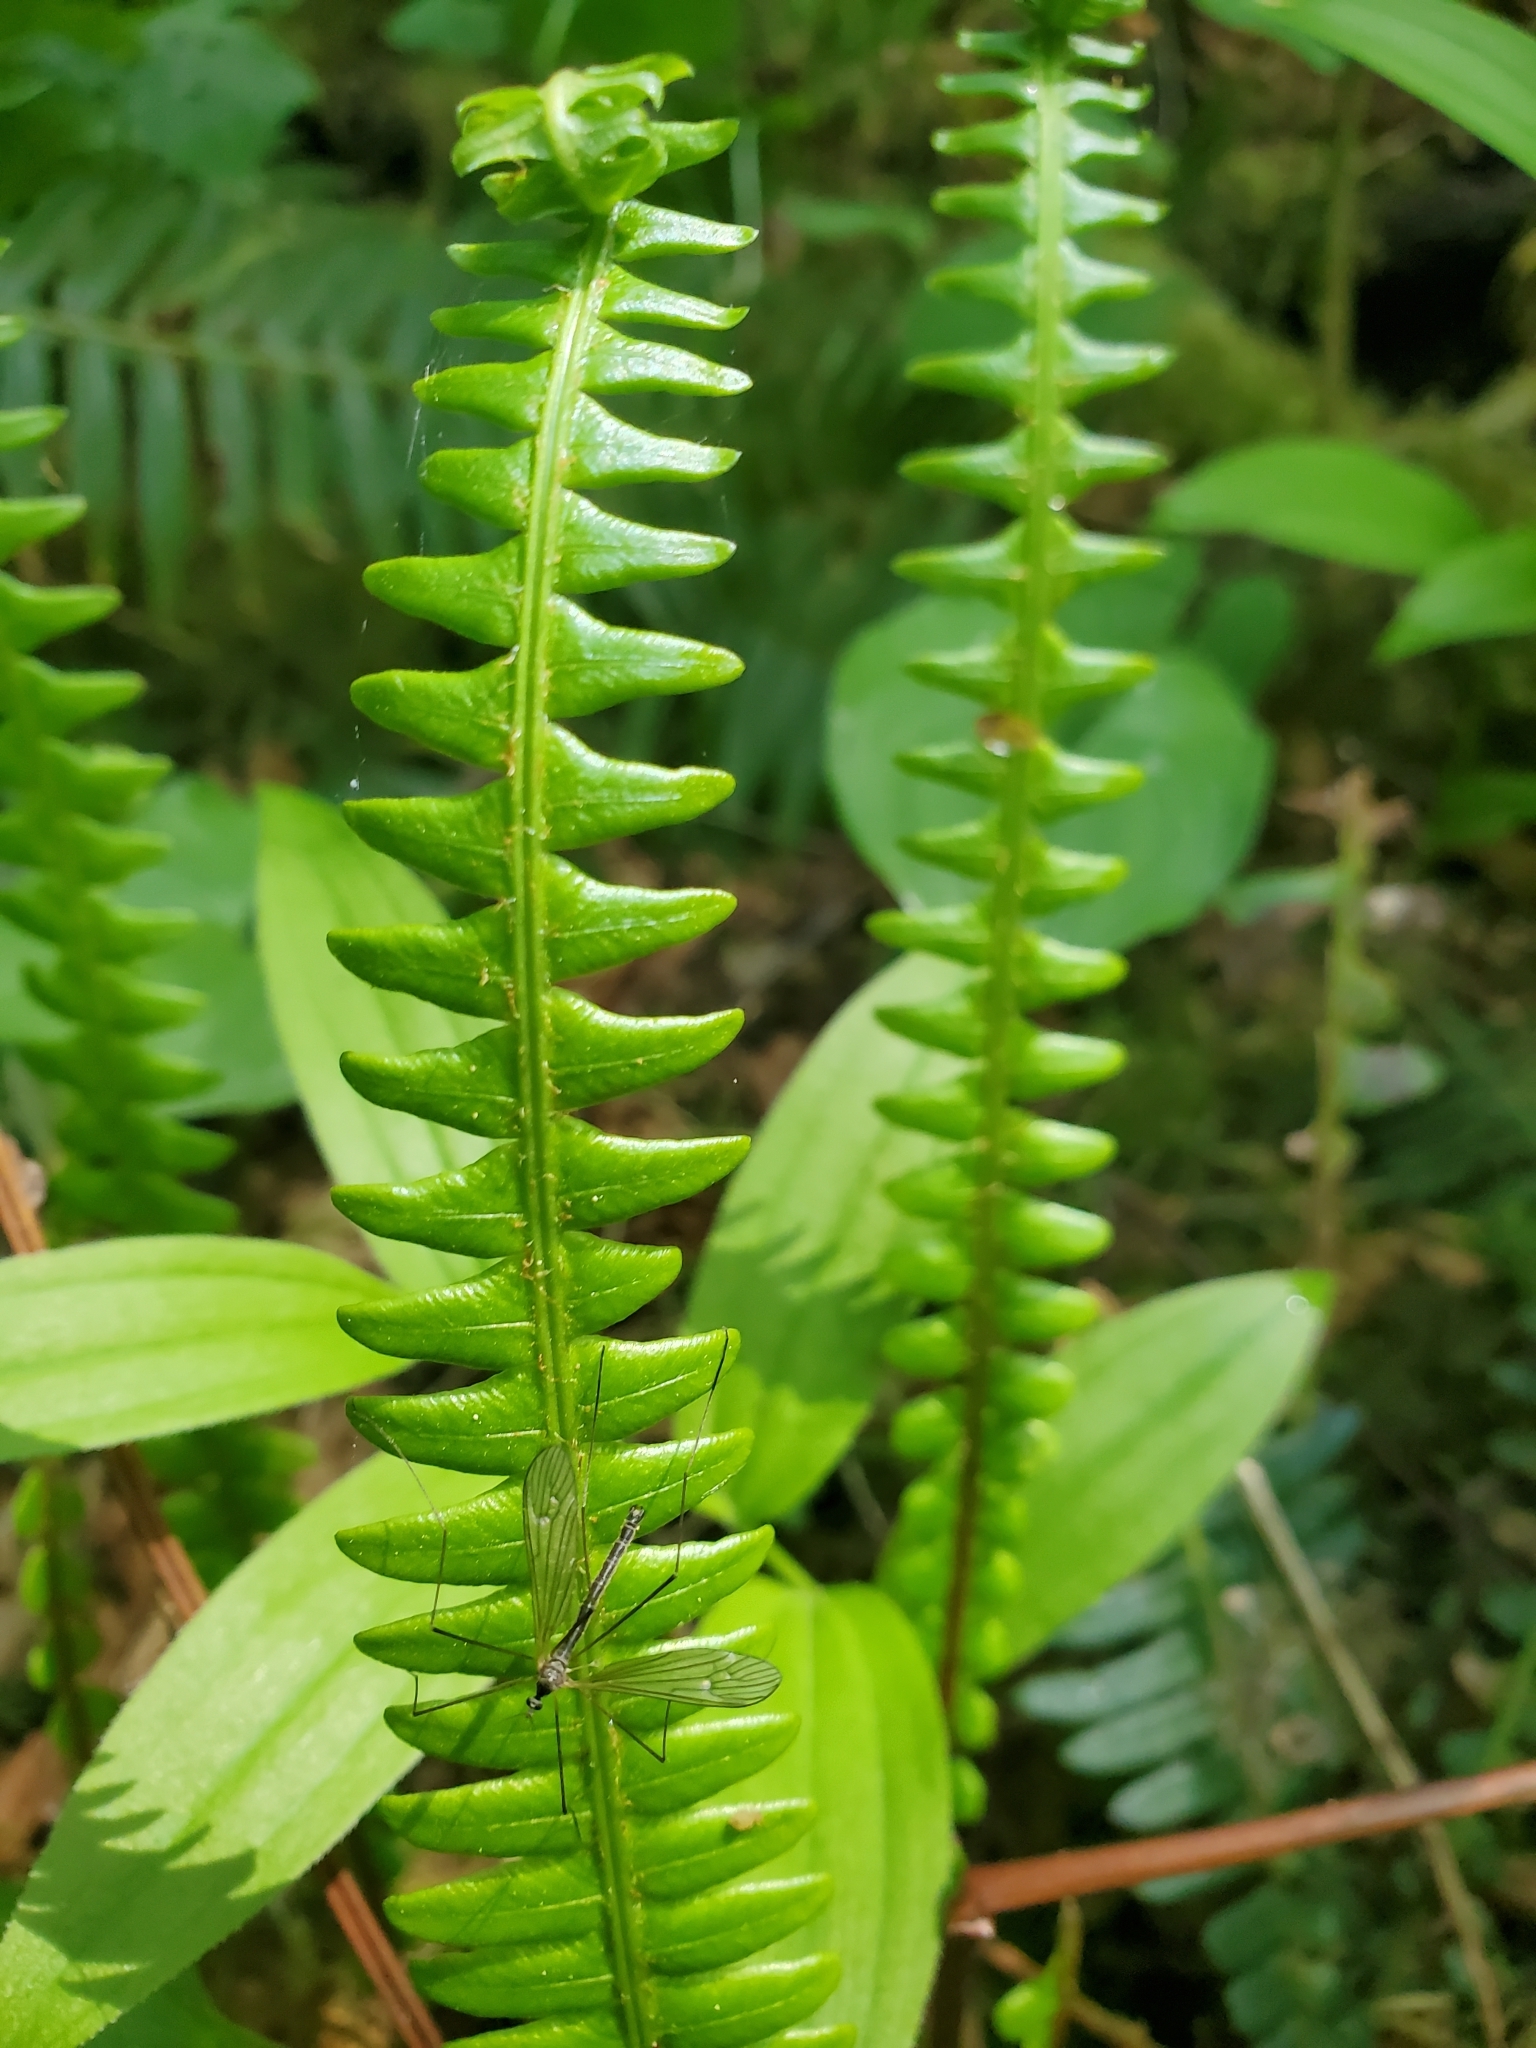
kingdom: Plantae
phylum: Tracheophyta
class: Polypodiopsida
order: Polypodiales
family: Blechnaceae
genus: Struthiopteris
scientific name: Struthiopteris spicant
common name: Deer fern
